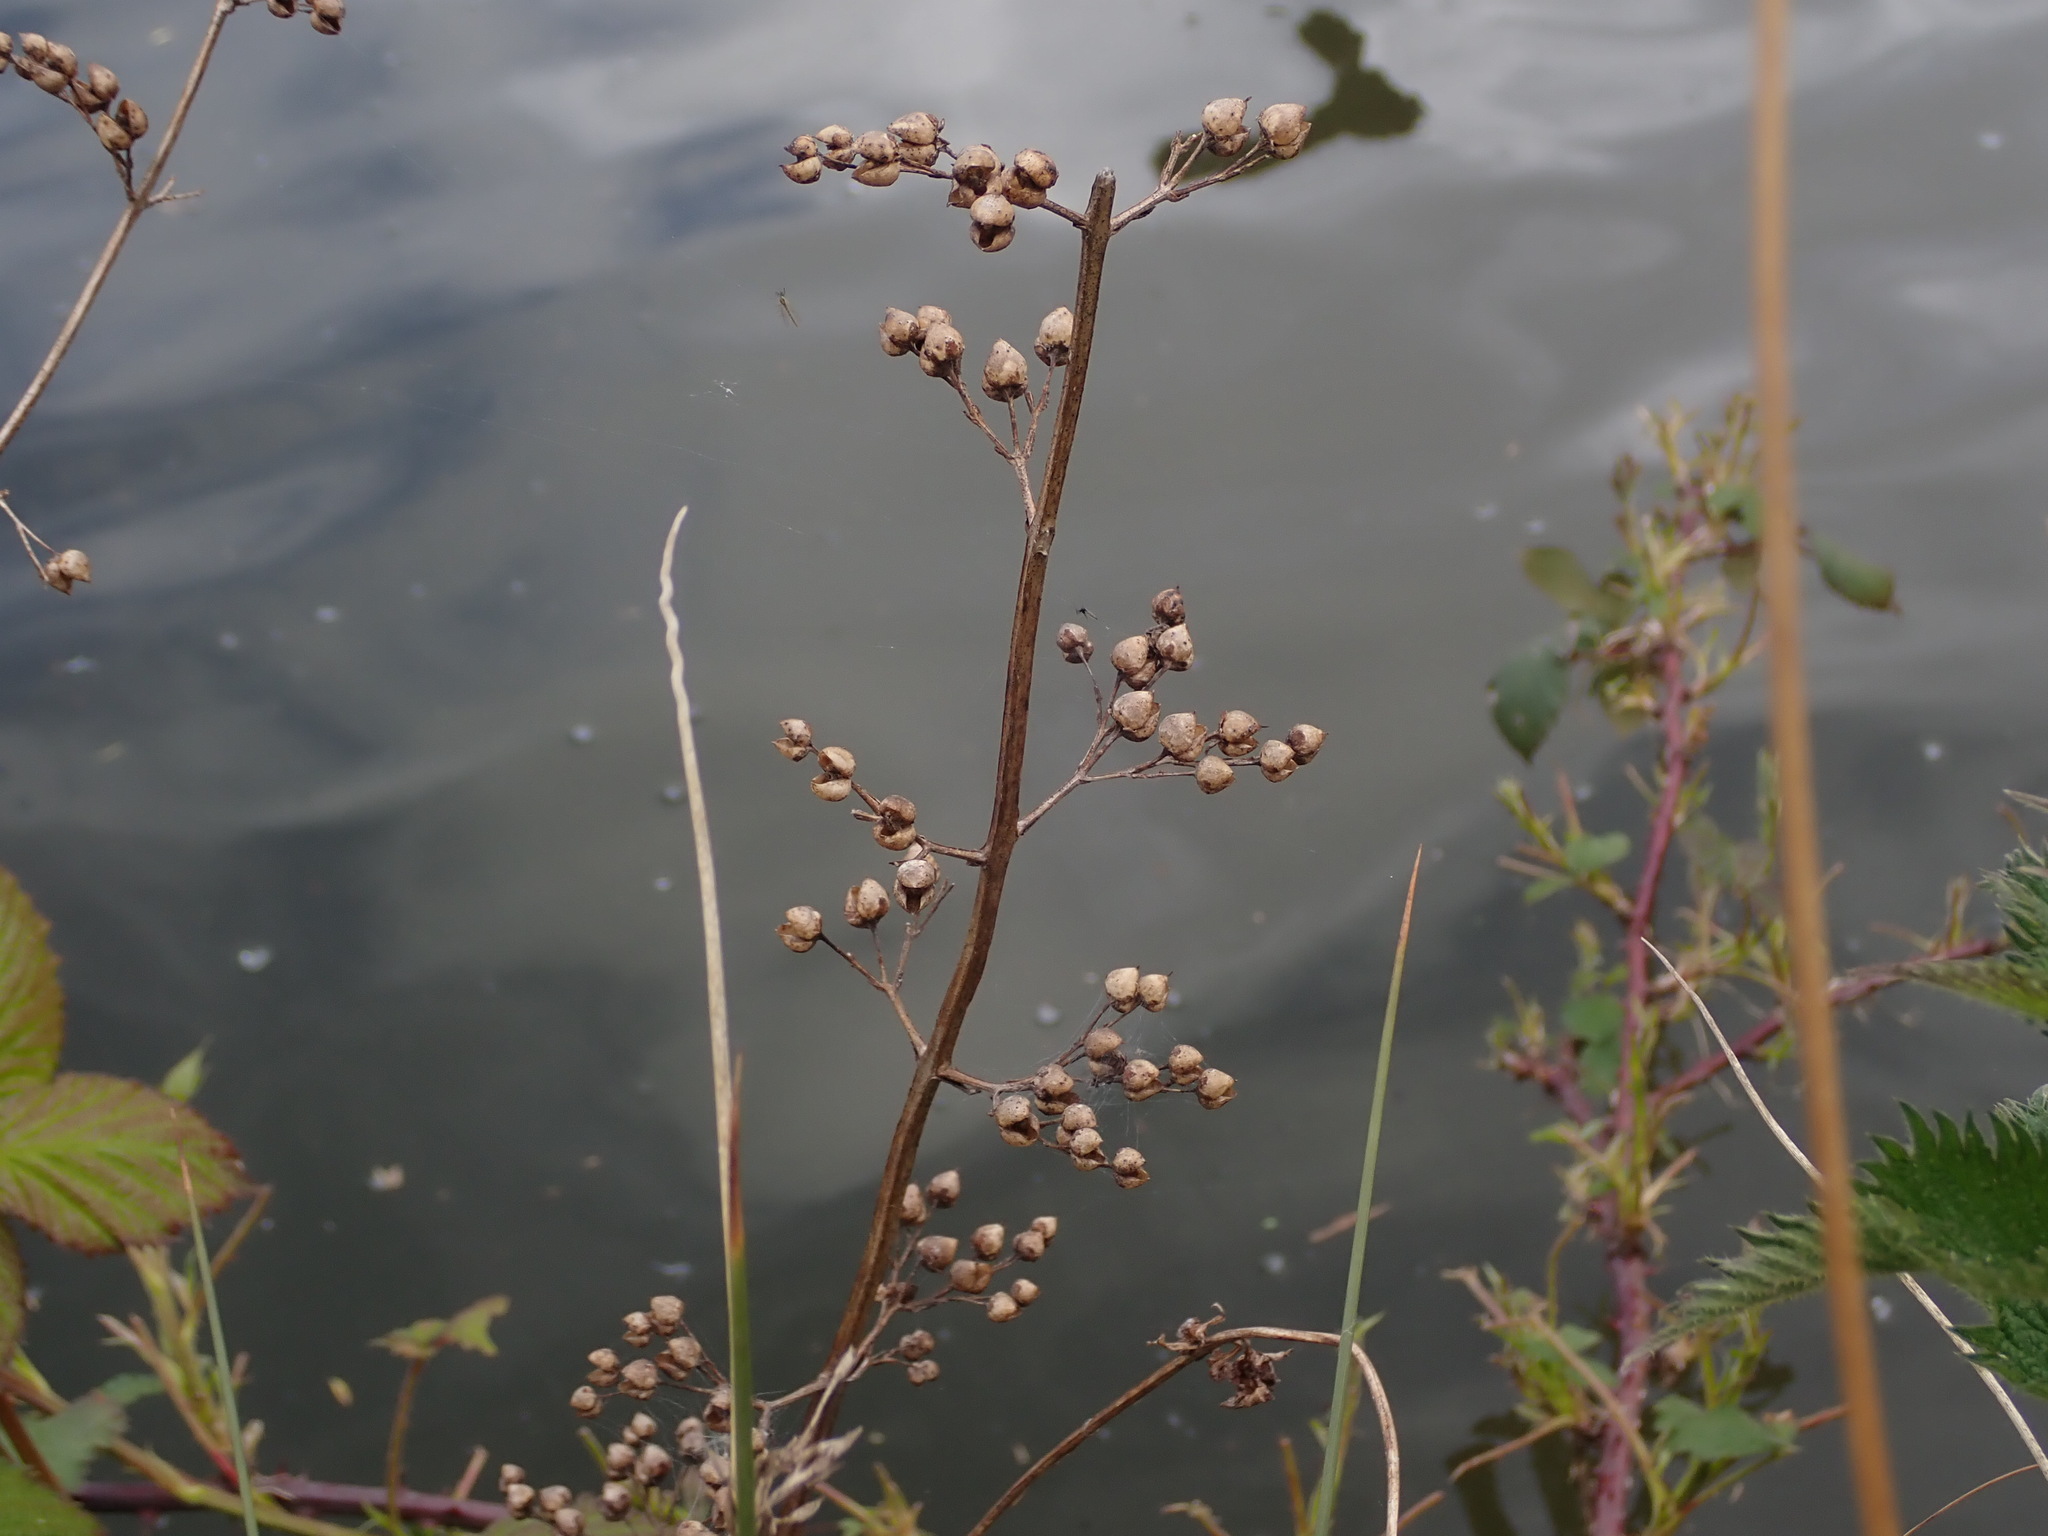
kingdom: Plantae
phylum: Tracheophyta
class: Magnoliopsida
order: Lamiales
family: Scrophulariaceae
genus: Scrophularia
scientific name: Scrophularia auriculata
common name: Water betony
